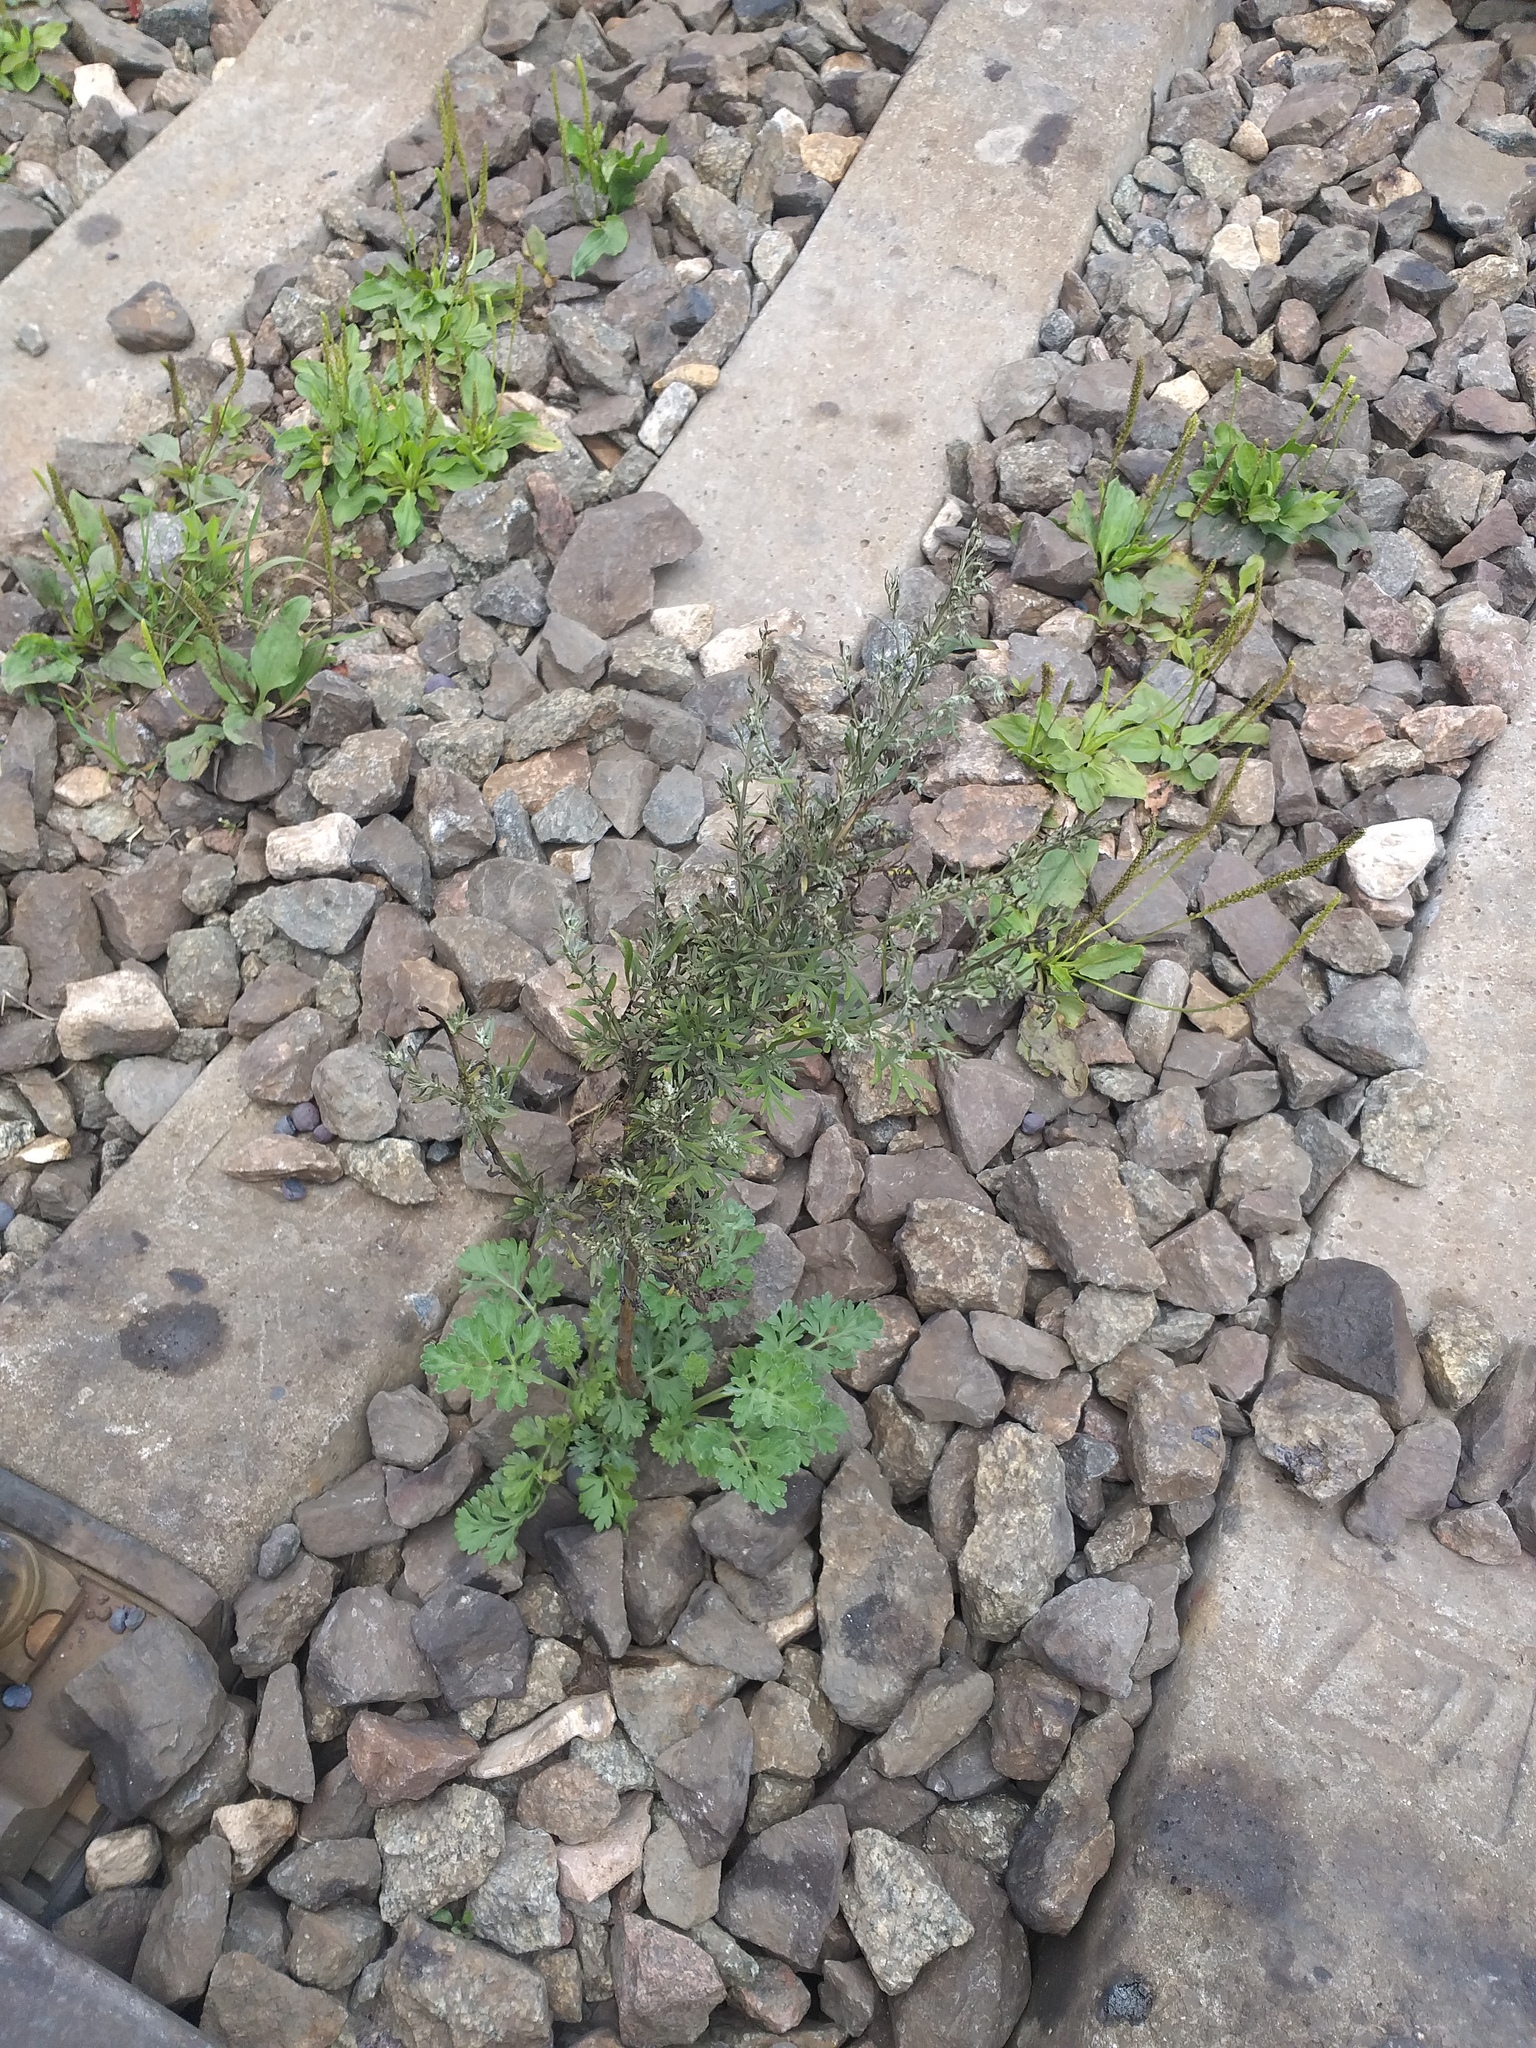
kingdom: Plantae
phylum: Tracheophyta
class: Magnoliopsida
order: Asterales
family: Asteraceae
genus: Artemisia
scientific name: Artemisia absinthium
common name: Wormwood
